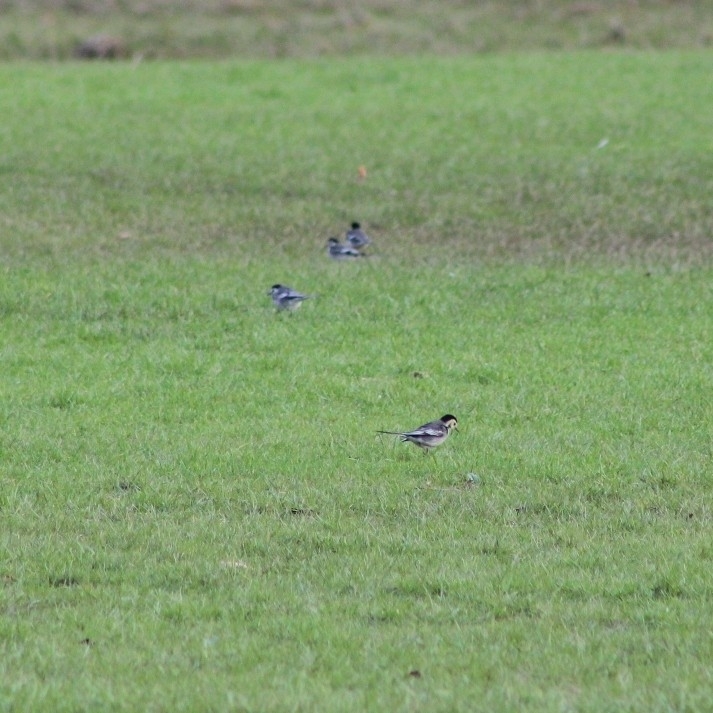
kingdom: Animalia
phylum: Chordata
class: Aves
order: Passeriformes
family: Motacillidae
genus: Motacilla
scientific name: Motacilla alba
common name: White wagtail
